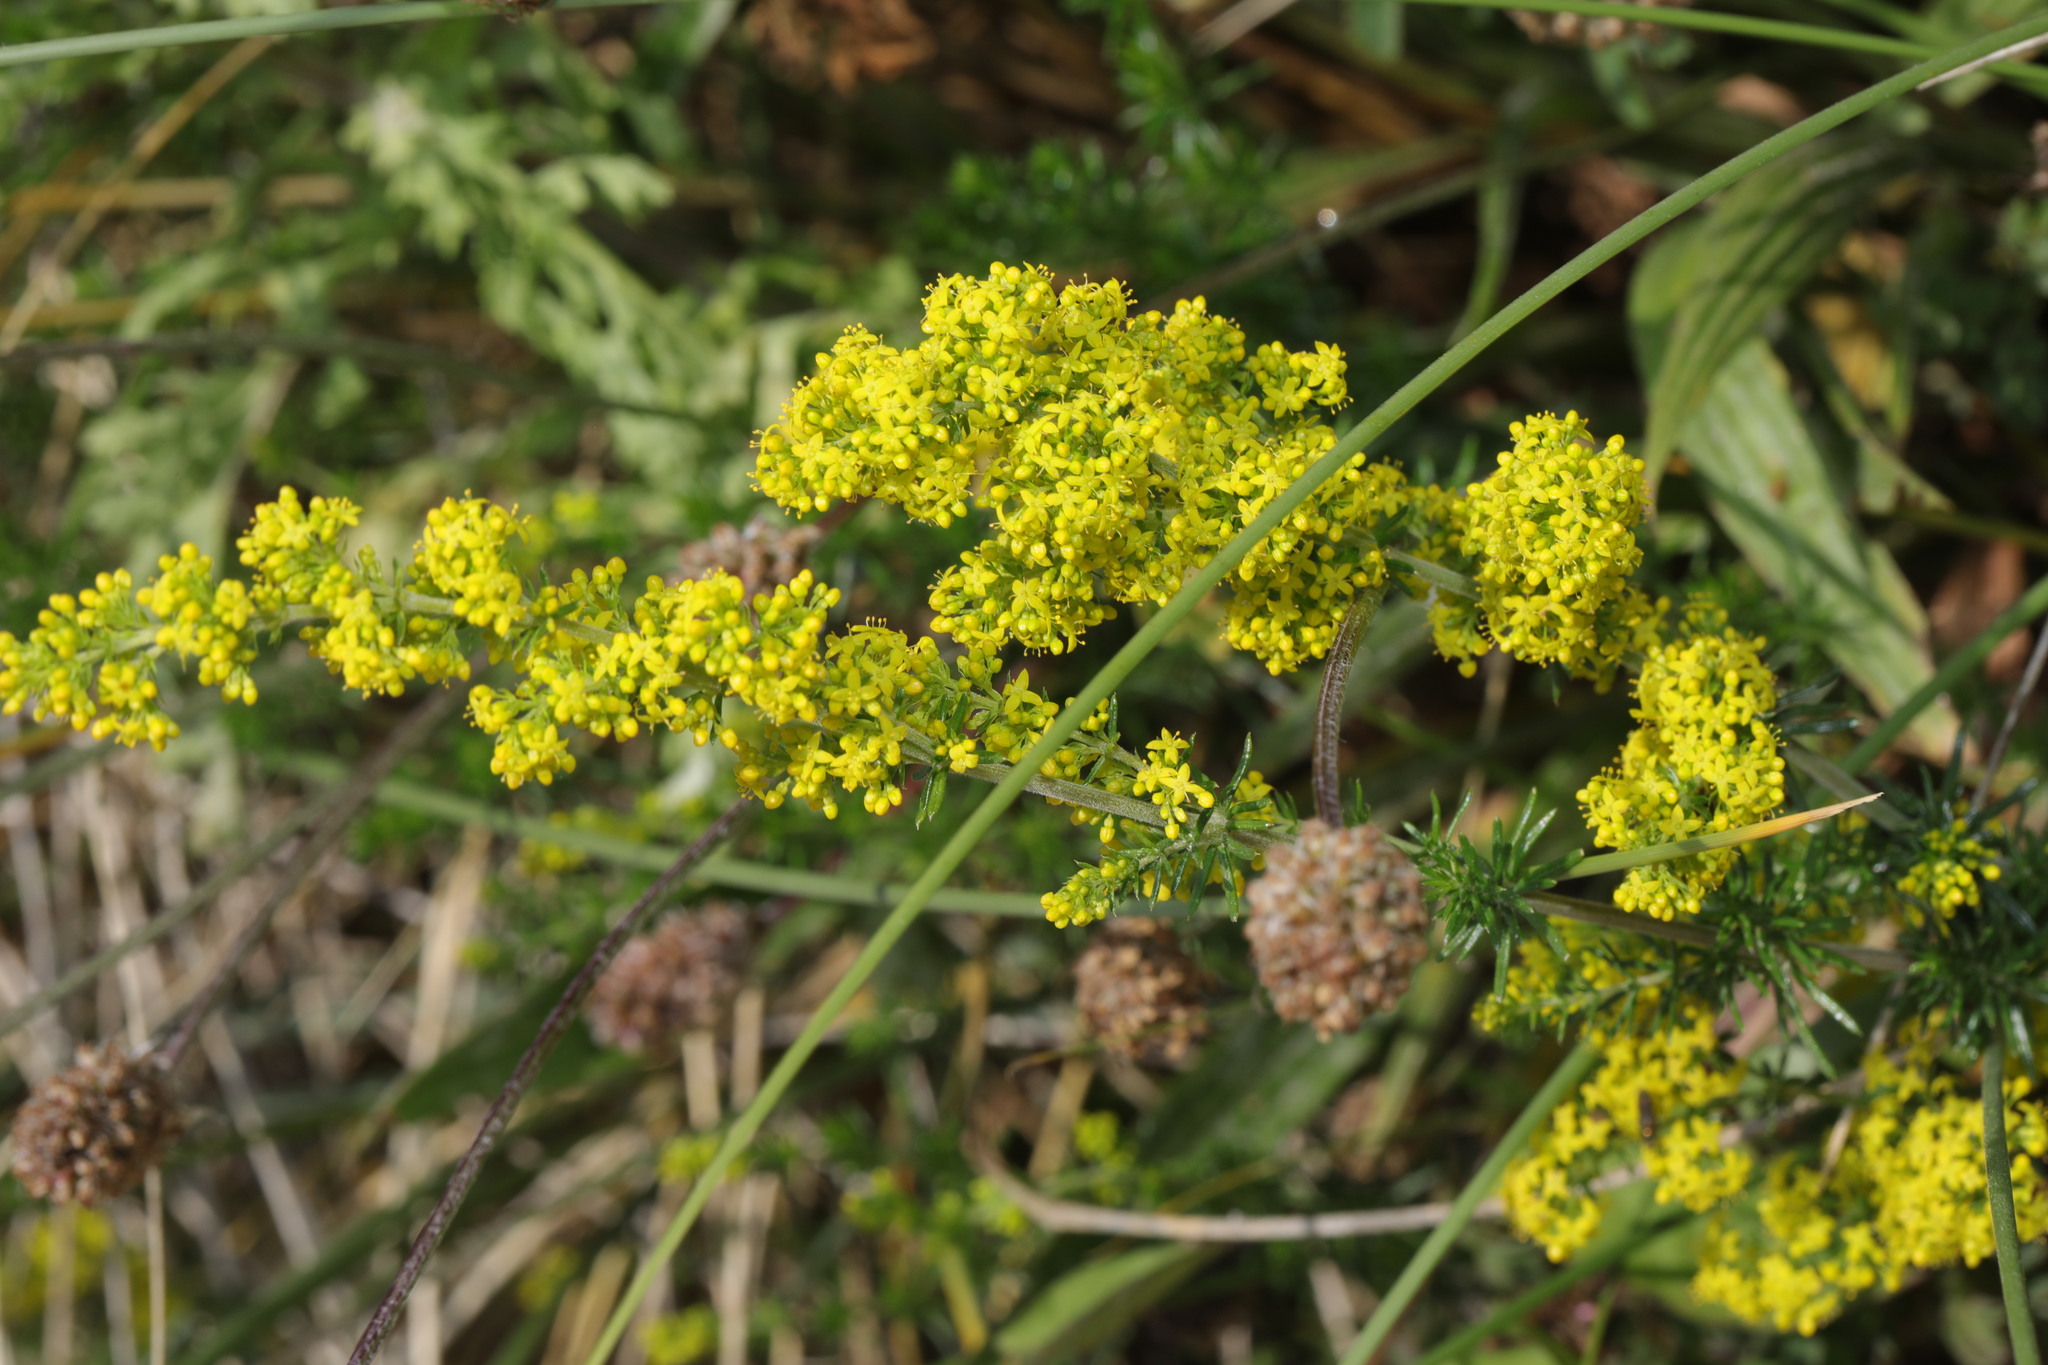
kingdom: Plantae
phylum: Tracheophyta
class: Magnoliopsida
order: Gentianales
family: Rubiaceae
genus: Galium
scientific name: Galium verum
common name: Lady's bedstraw
